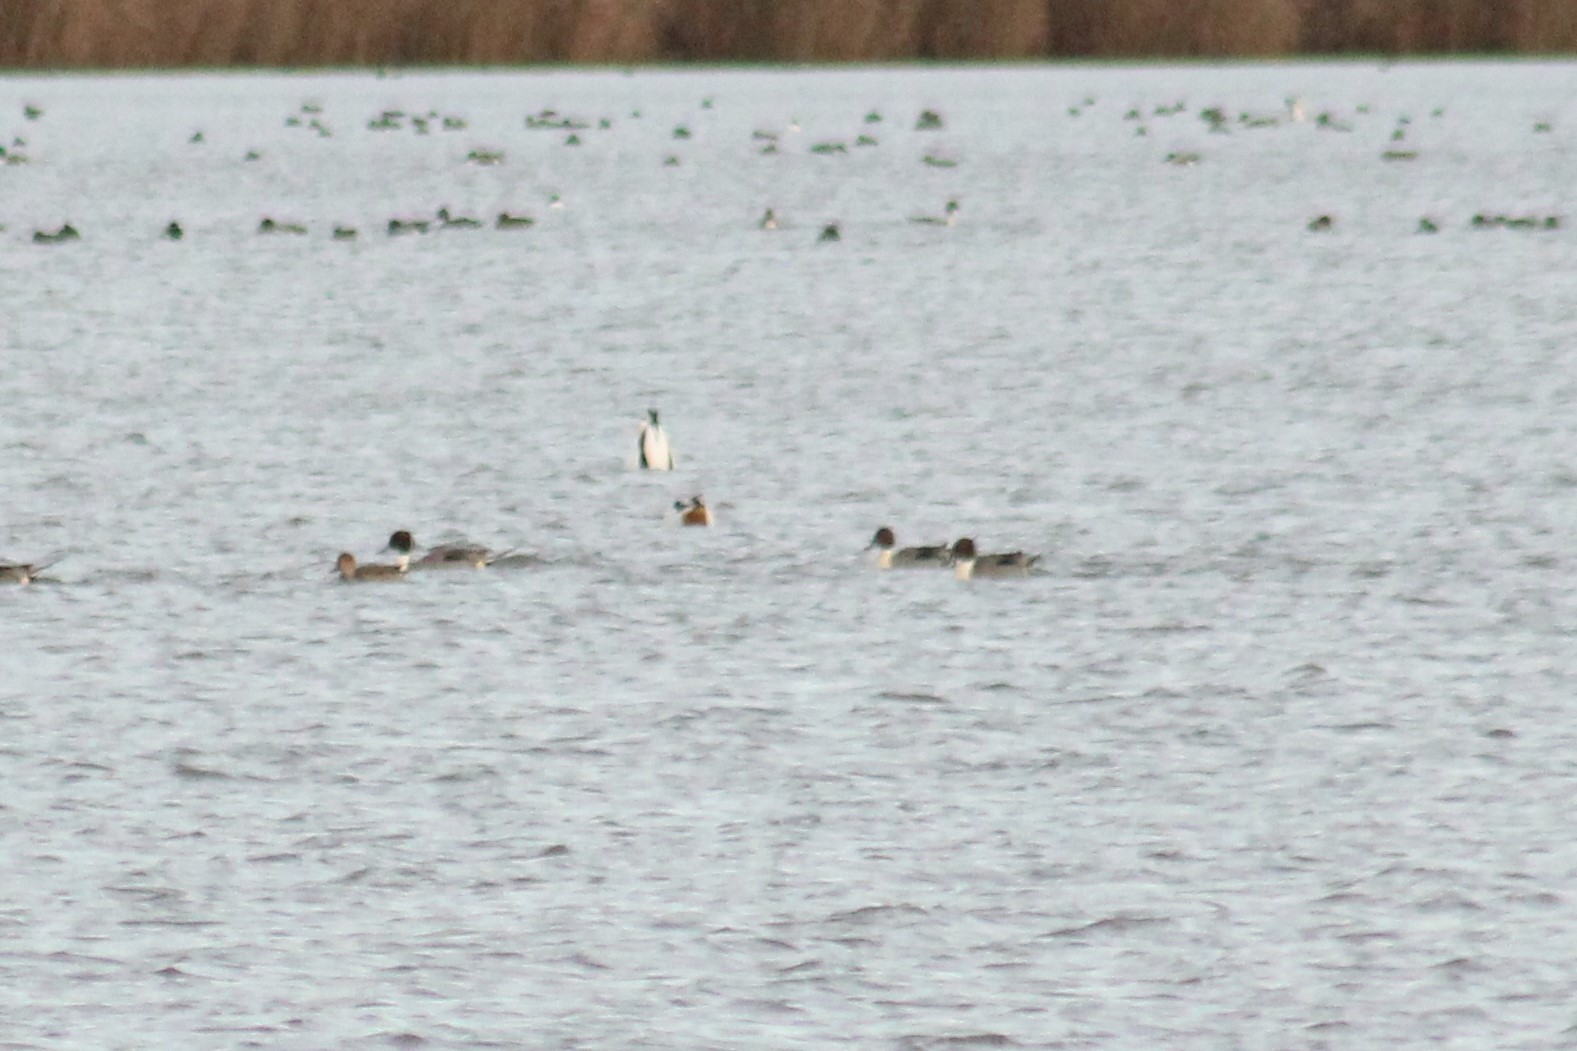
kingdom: Animalia
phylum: Chordata
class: Aves
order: Anseriformes
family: Anatidae
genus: Anas
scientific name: Anas acuta
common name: Northern pintail
